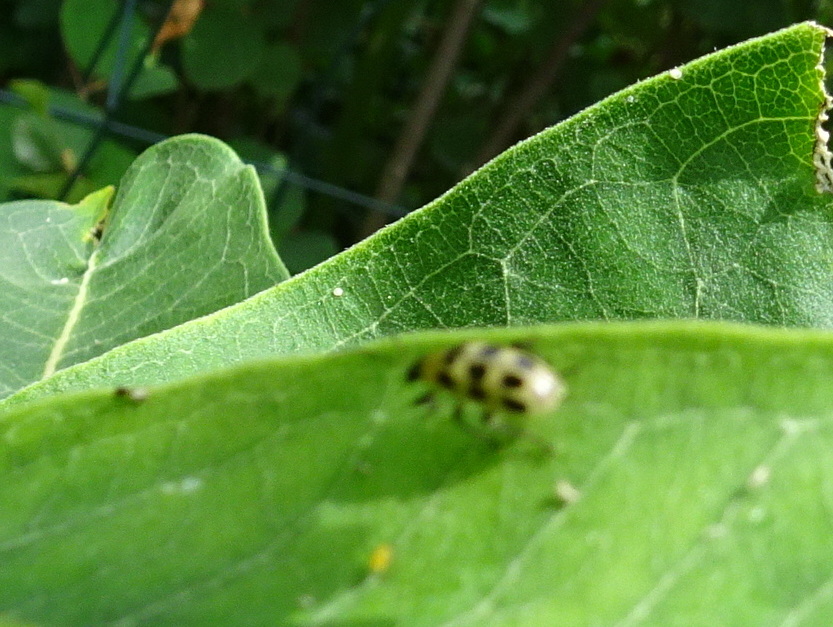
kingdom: Animalia
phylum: Arthropoda
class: Insecta
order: Coleoptera
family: Chrysomelidae
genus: Diabrotica
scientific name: Diabrotica undecimpunctata
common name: Spotted cucumber beetle
